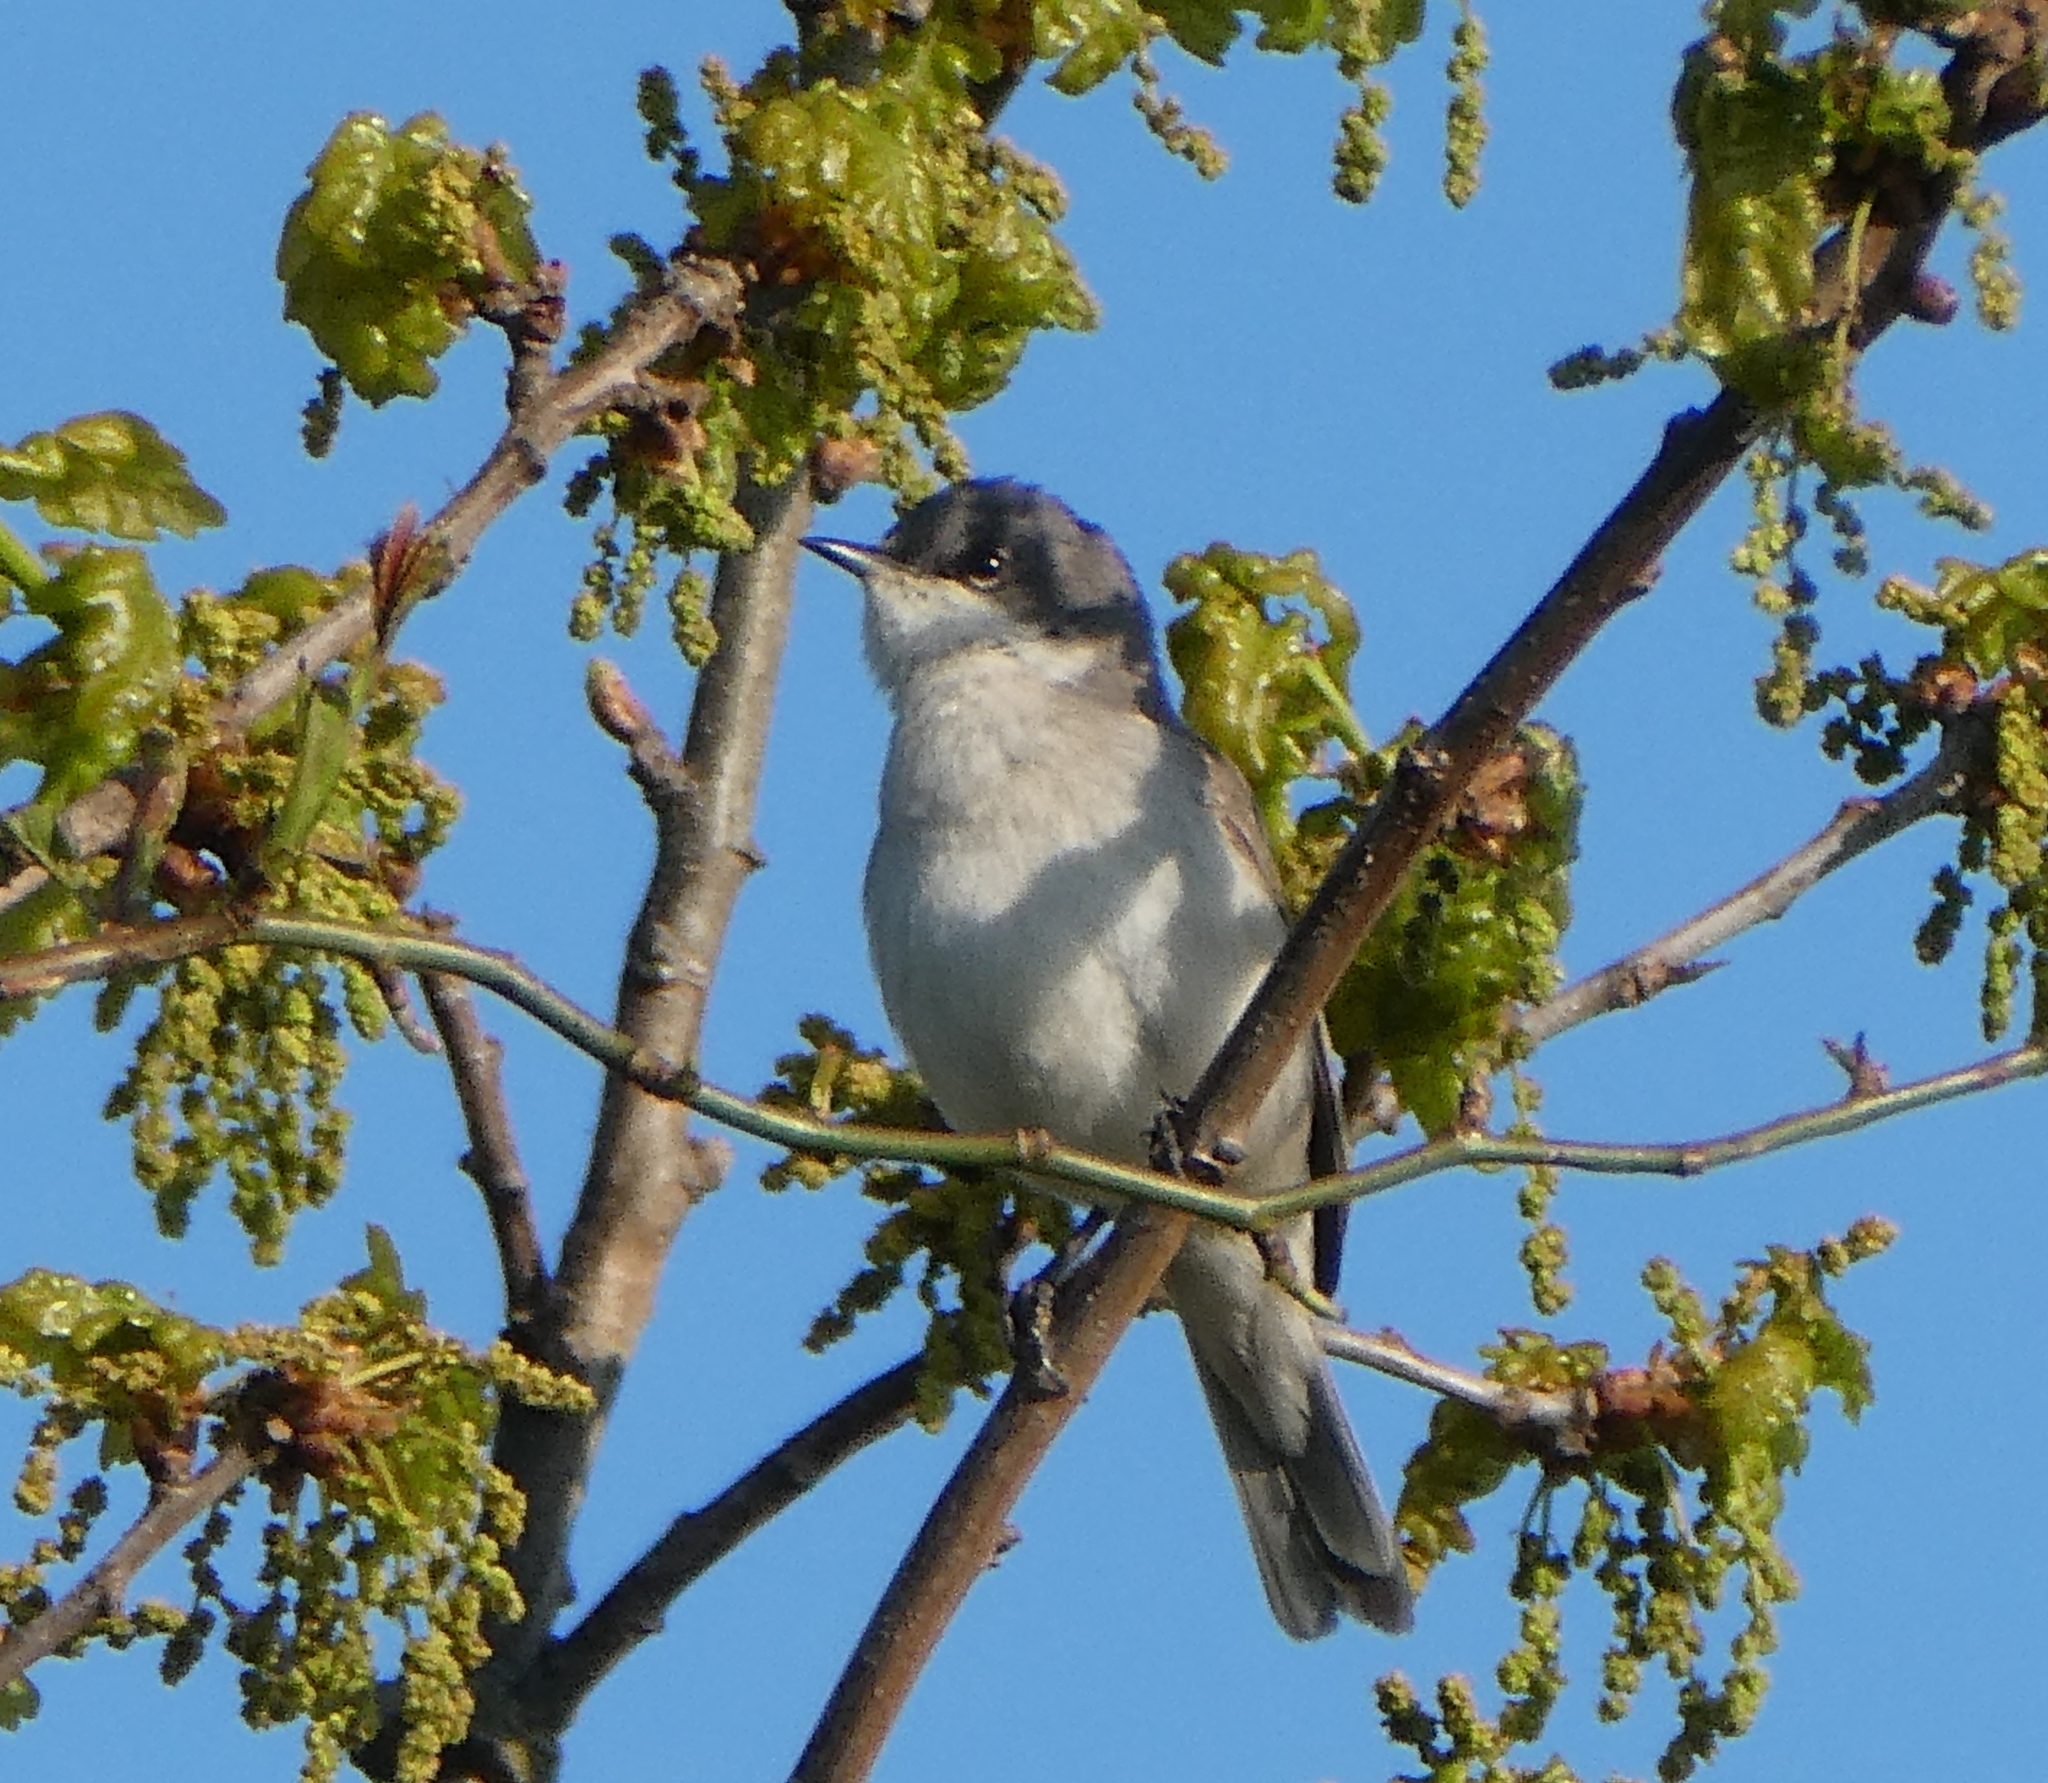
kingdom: Animalia
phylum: Chordata
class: Aves
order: Passeriformes
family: Sylviidae
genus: Sylvia
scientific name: Sylvia curruca
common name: Lesser whitethroat
